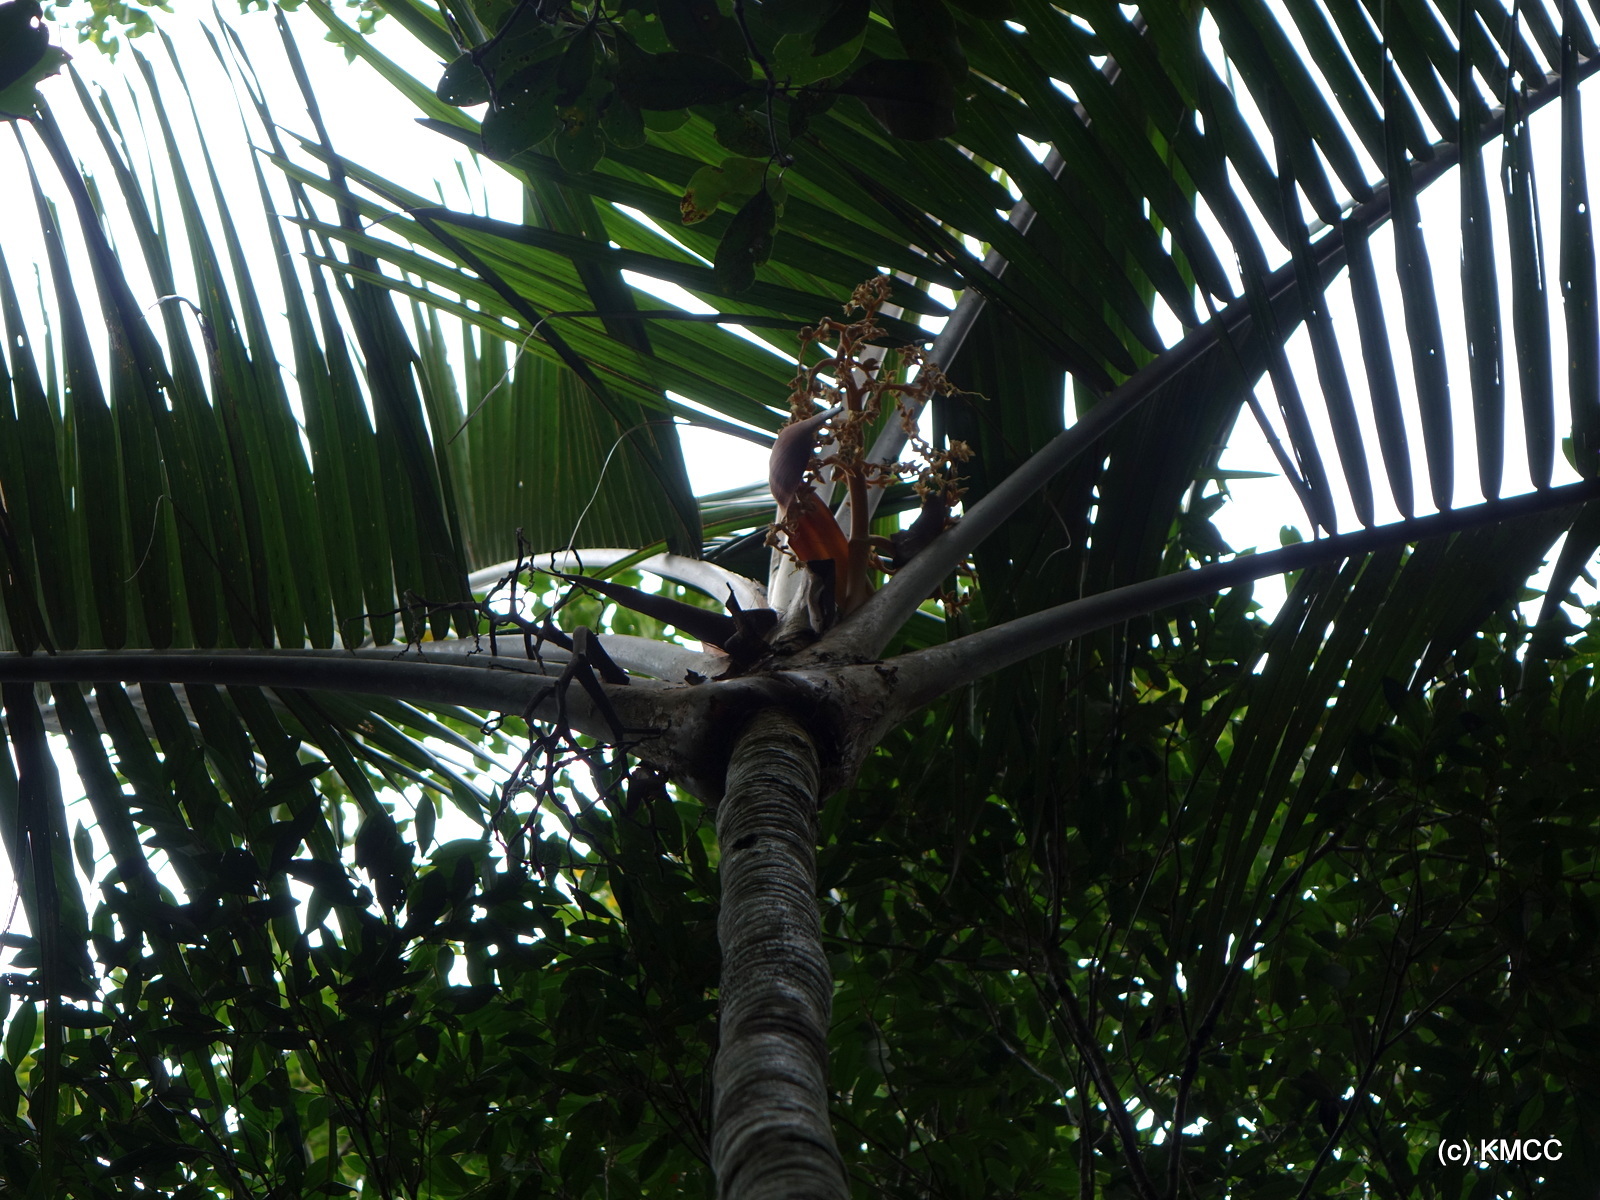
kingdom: Plantae
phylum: Tracheophyta
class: Liliopsida
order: Arecales
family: Arecaceae
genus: Orania
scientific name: Orania longisquama
